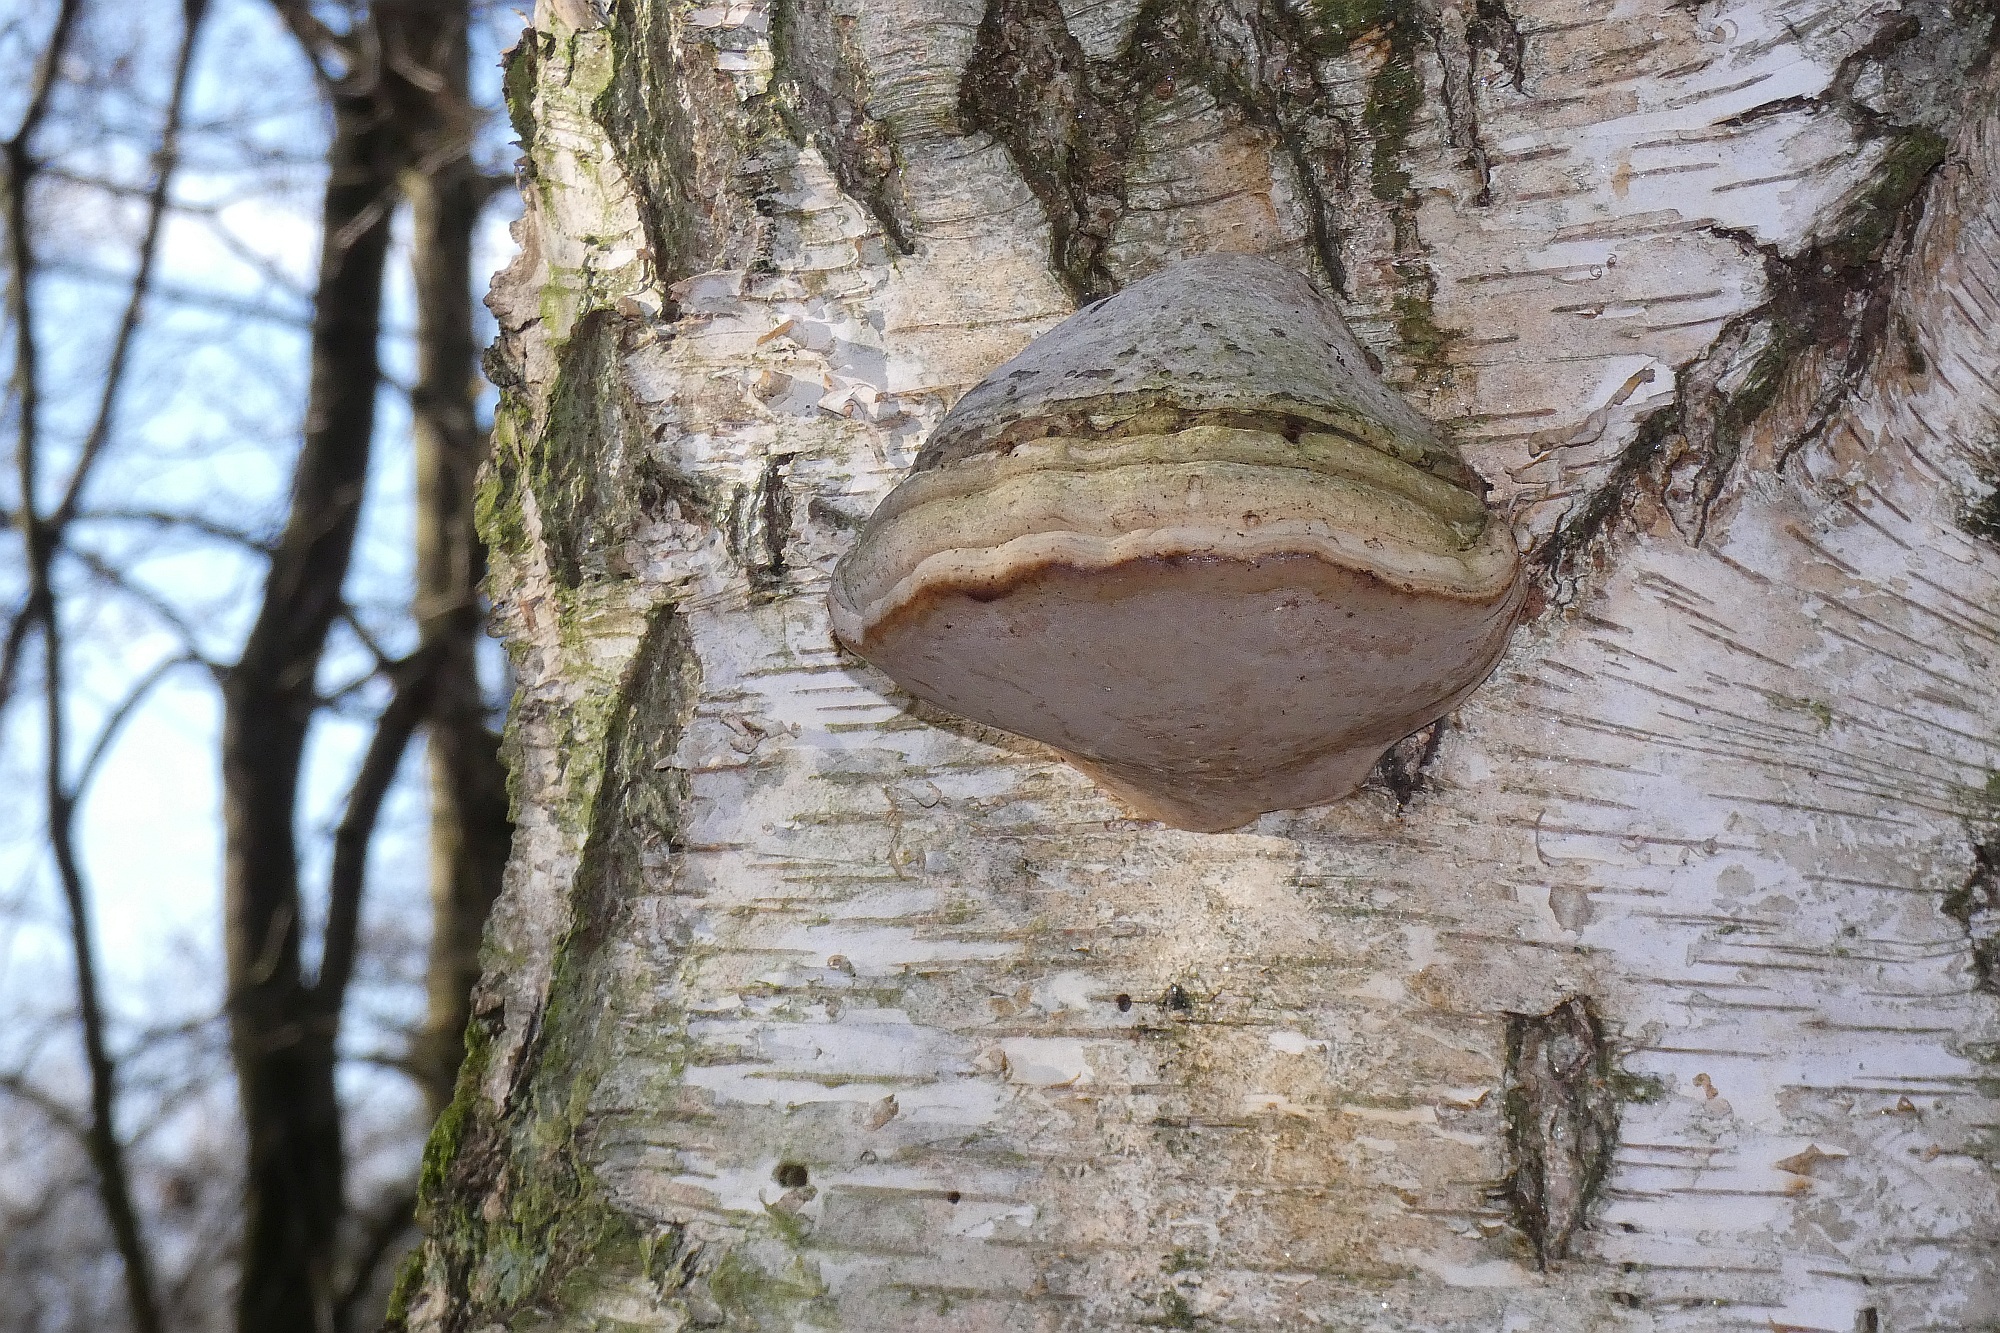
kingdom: Fungi
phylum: Basidiomycota
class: Agaricomycetes
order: Polyporales
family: Polyporaceae
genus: Fomes
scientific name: Fomes fomentarius
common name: Hoof fungus
